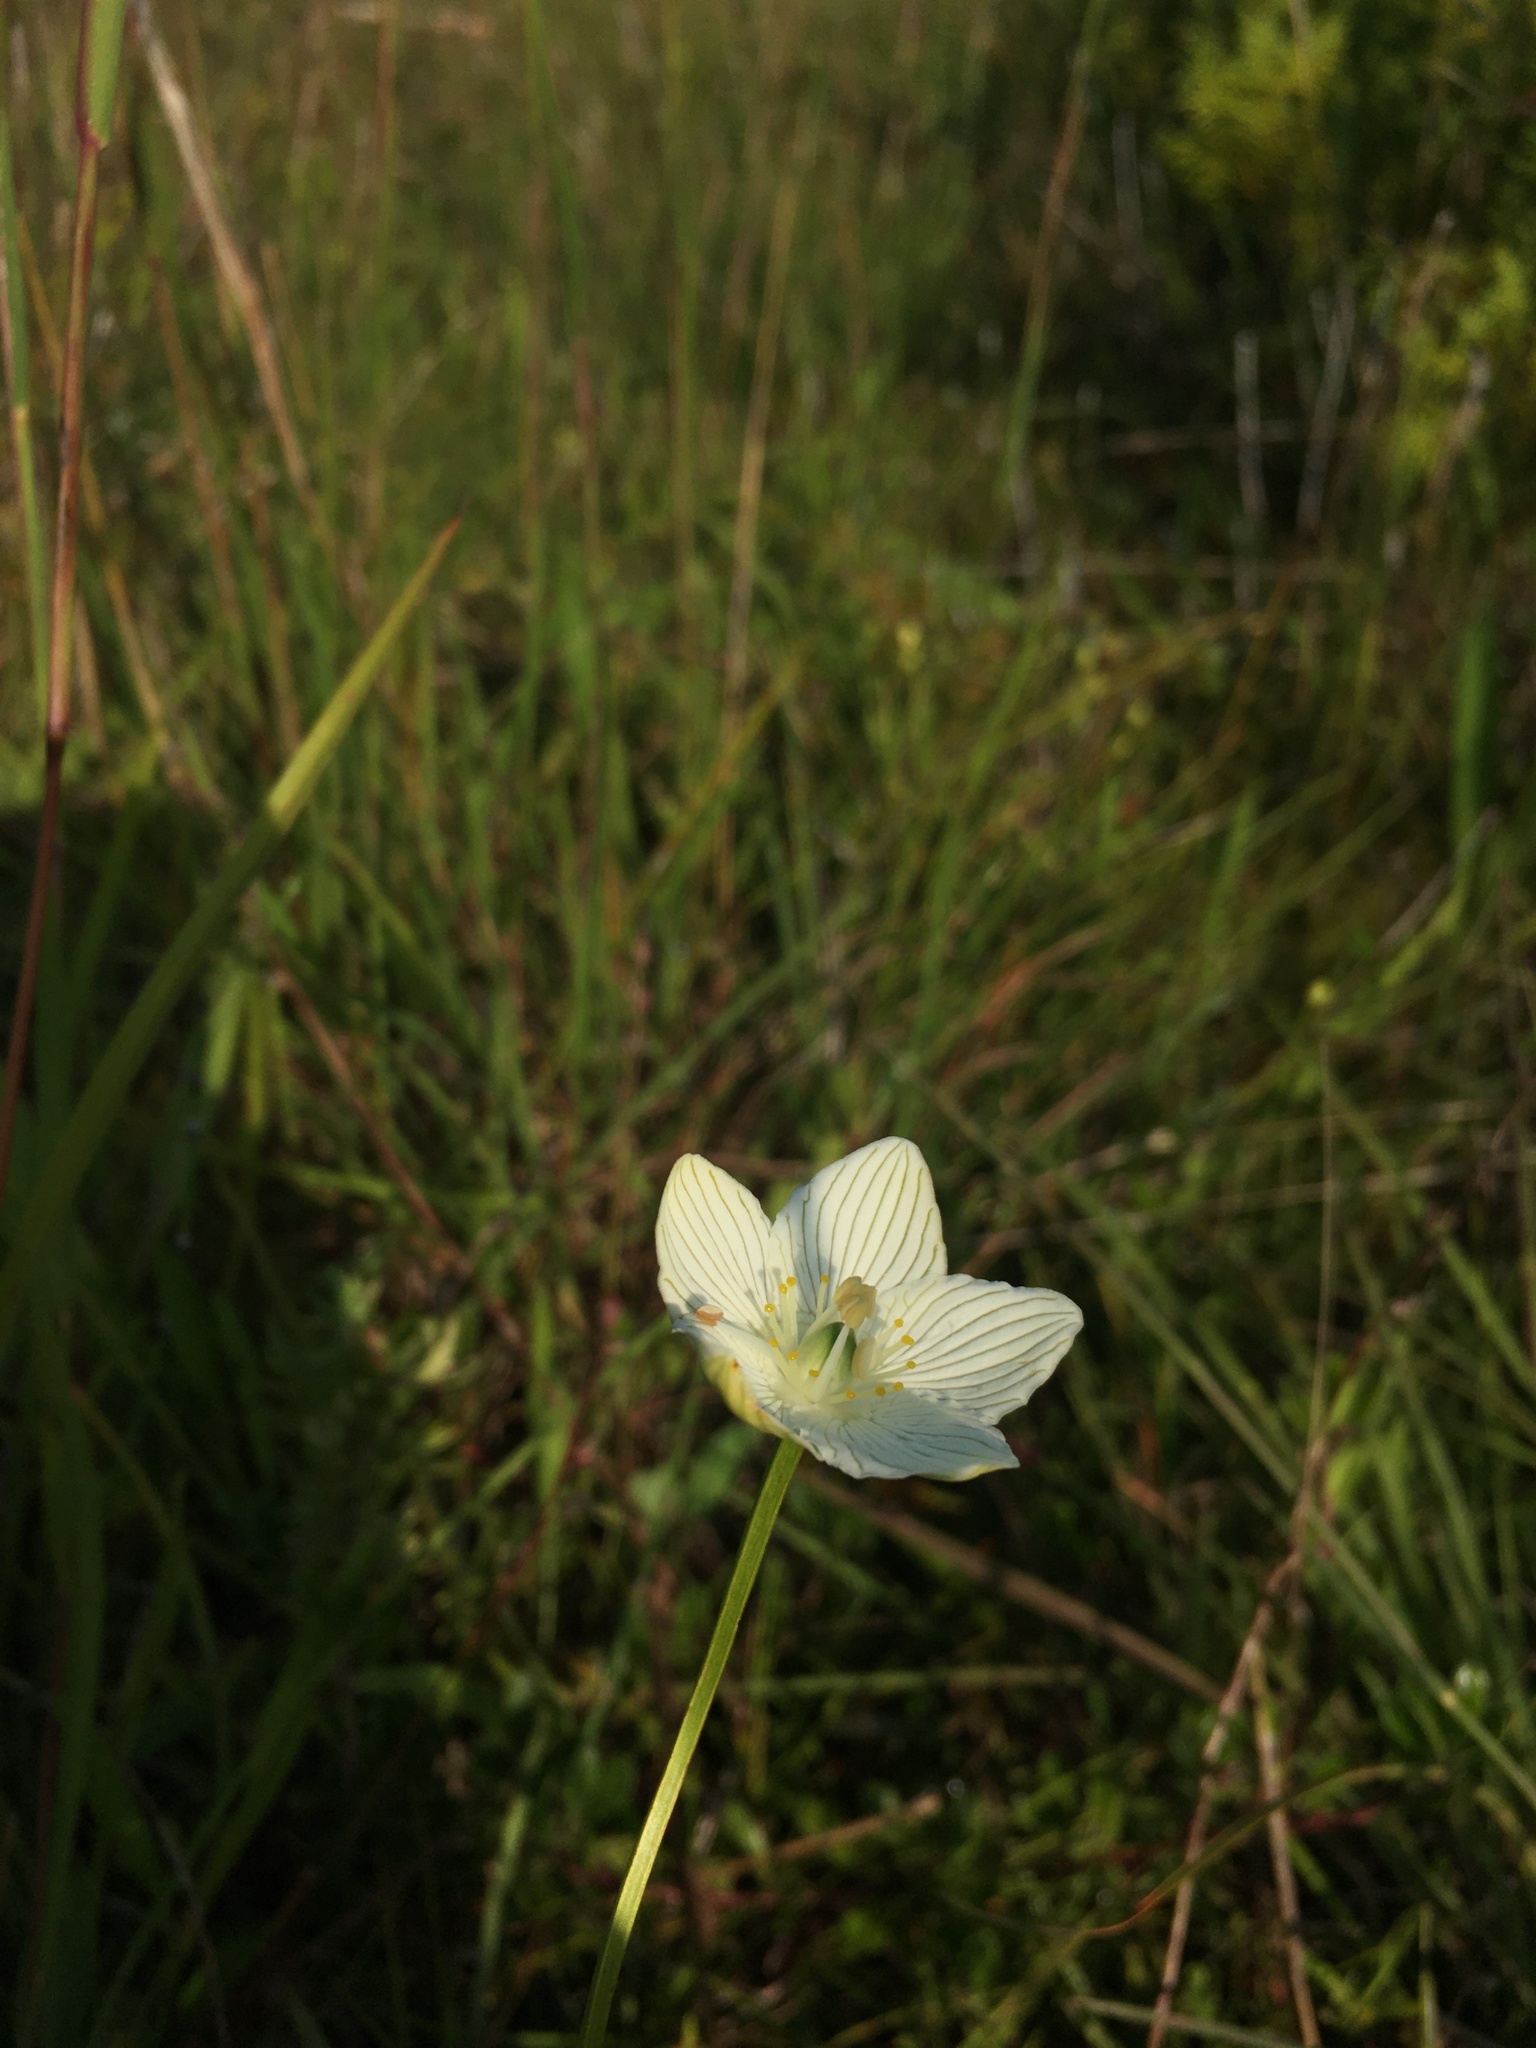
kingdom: Plantae
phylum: Tracheophyta
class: Magnoliopsida
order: Celastrales
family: Parnassiaceae
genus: Parnassia
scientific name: Parnassia glauca
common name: American grass-of-parnassus
